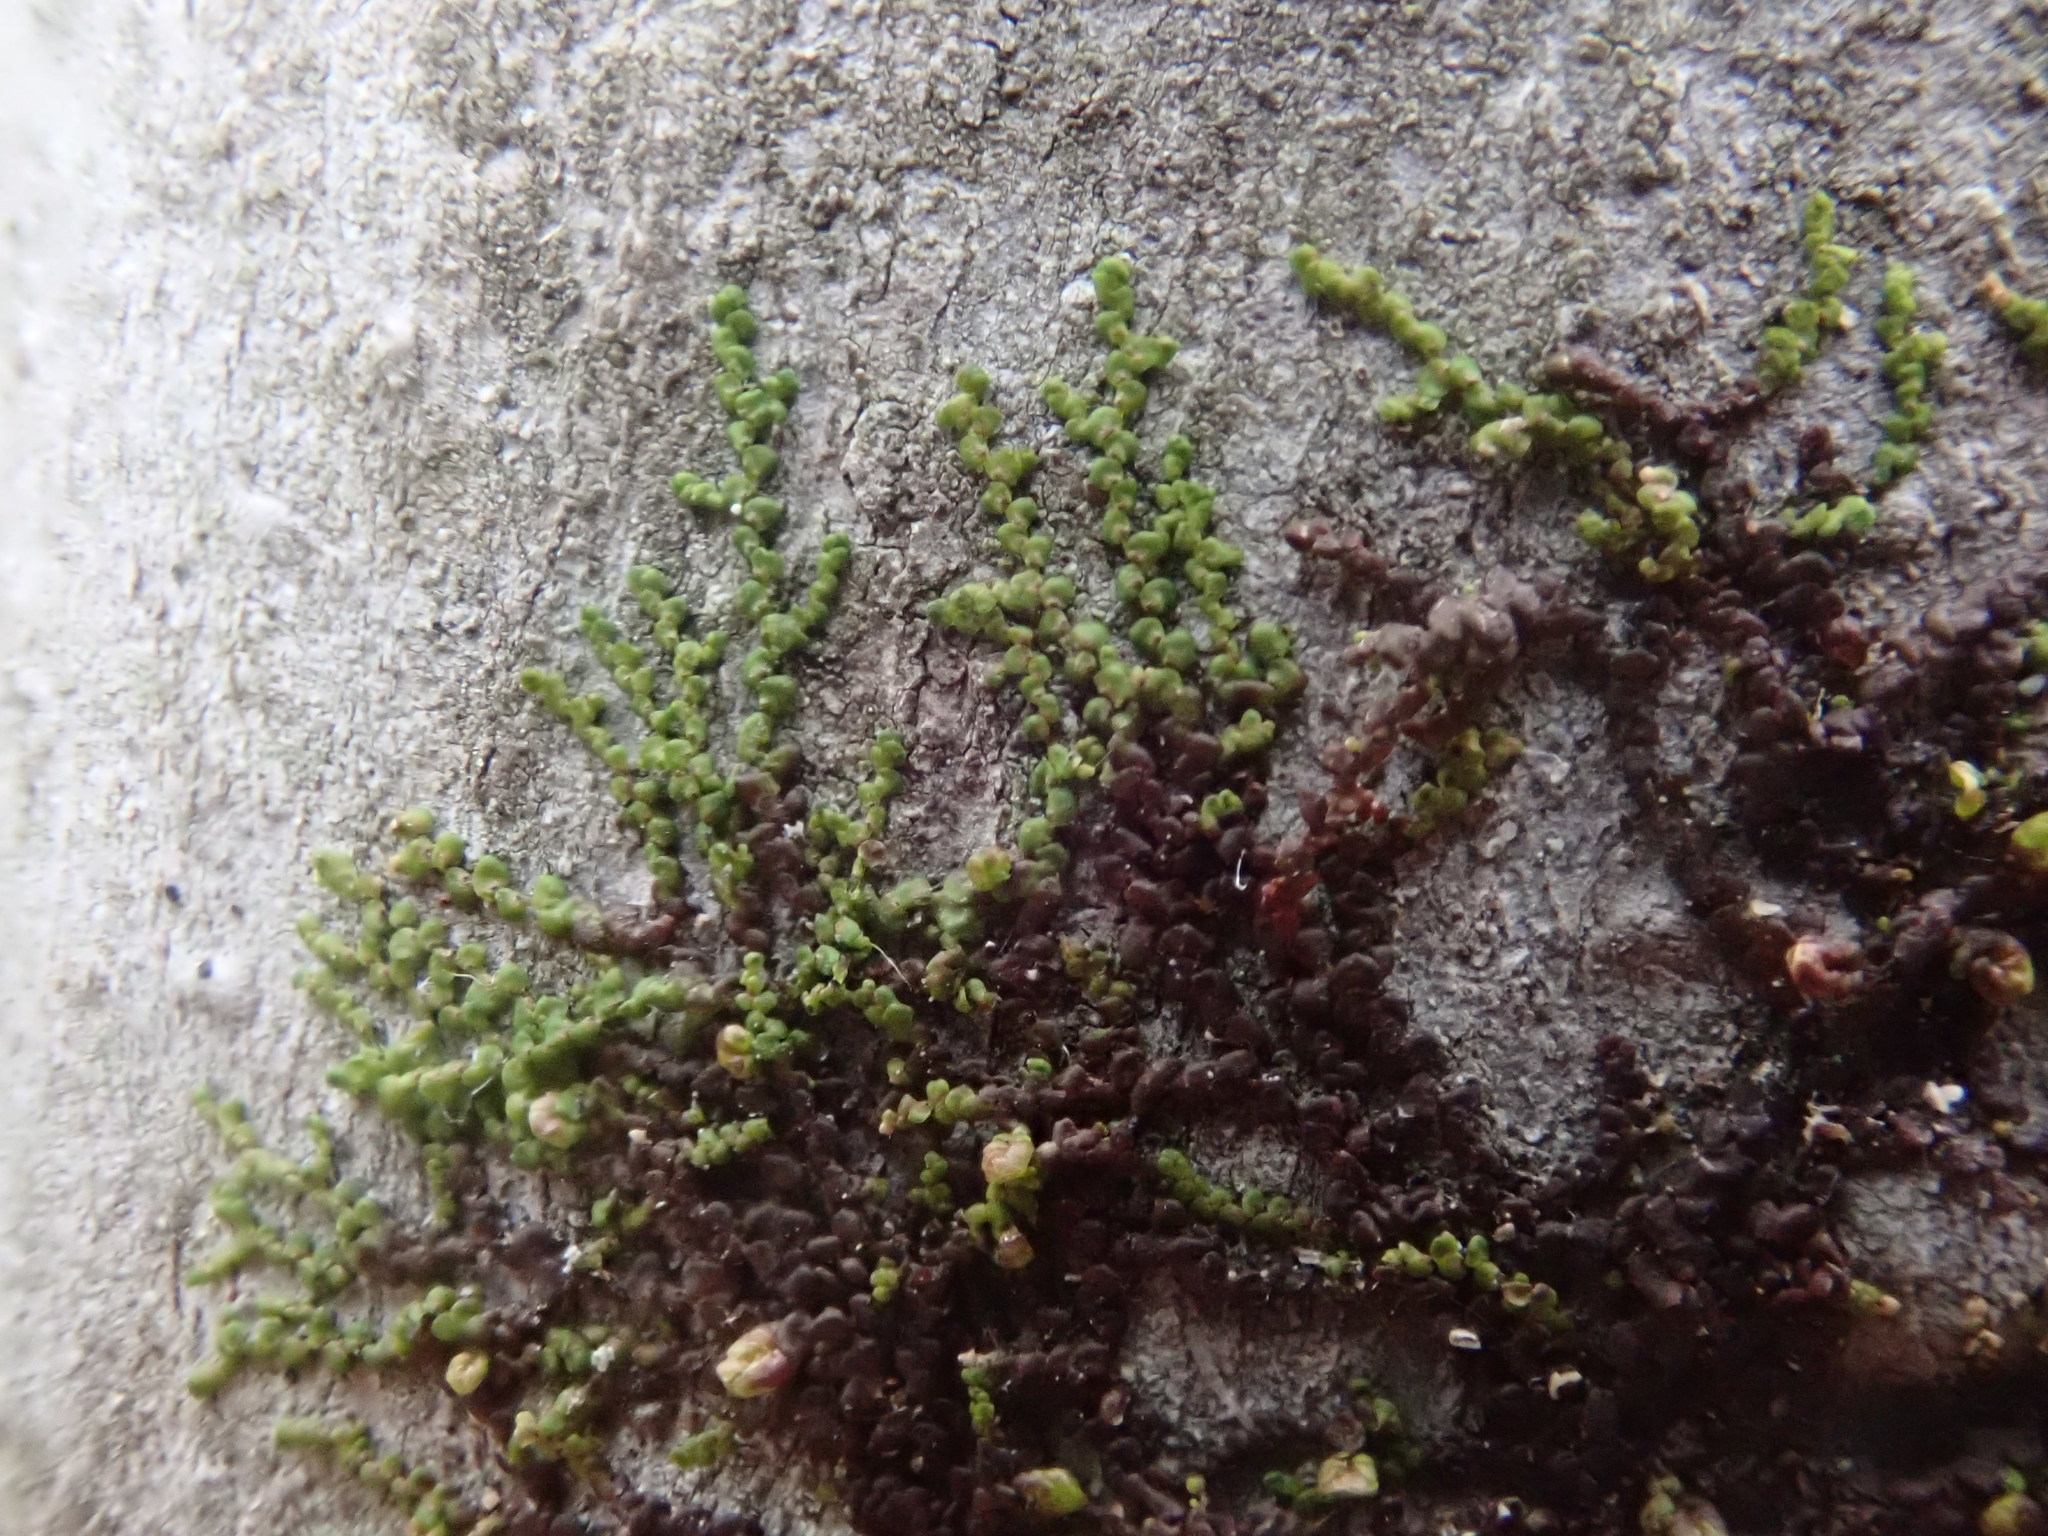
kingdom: Plantae
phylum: Marchantiophyta
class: Jungermanniopsida
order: Porellales
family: Frullaniaceae
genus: Frullania
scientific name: Frullania
